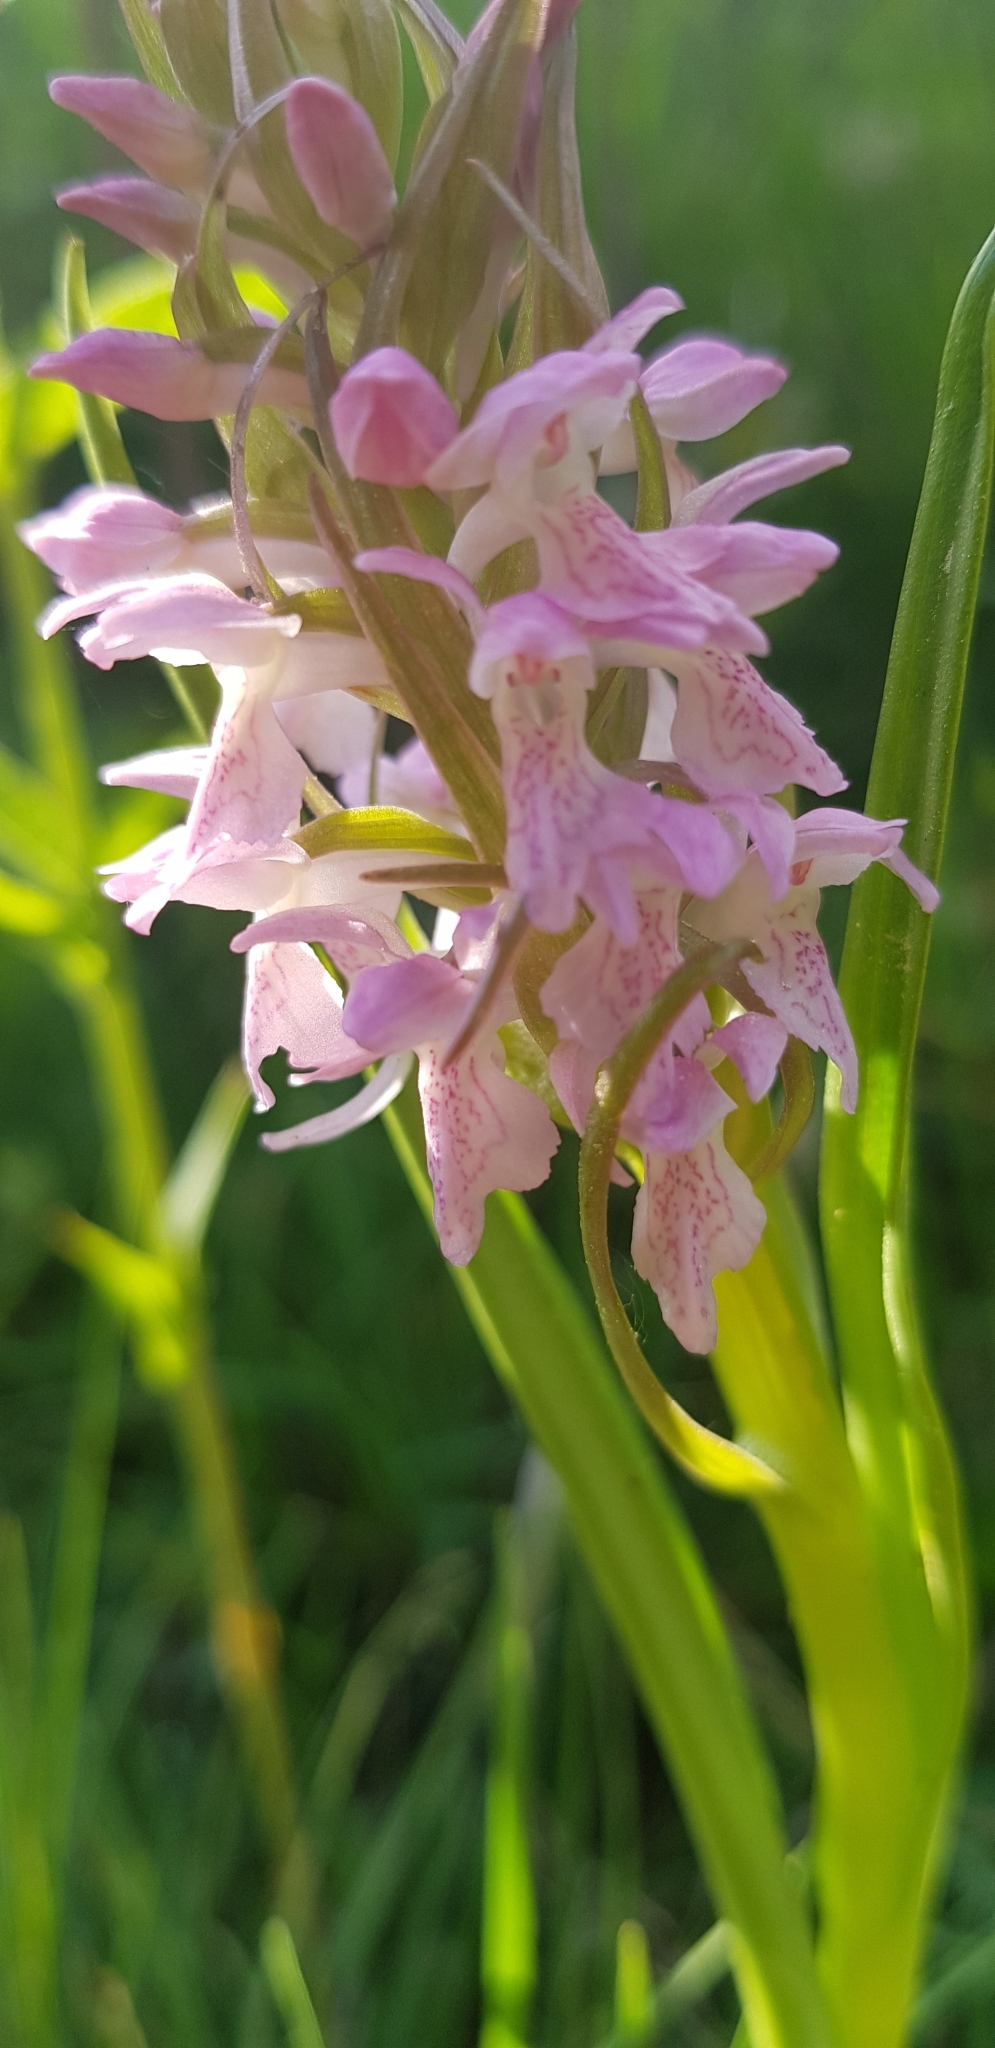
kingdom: Plantae
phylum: Tracheophyta
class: Liliopsida
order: Asparagales
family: Orchidaceae
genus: Dactylorhiza
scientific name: Dactylorhiza incarnata
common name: Early marsh-orchid
